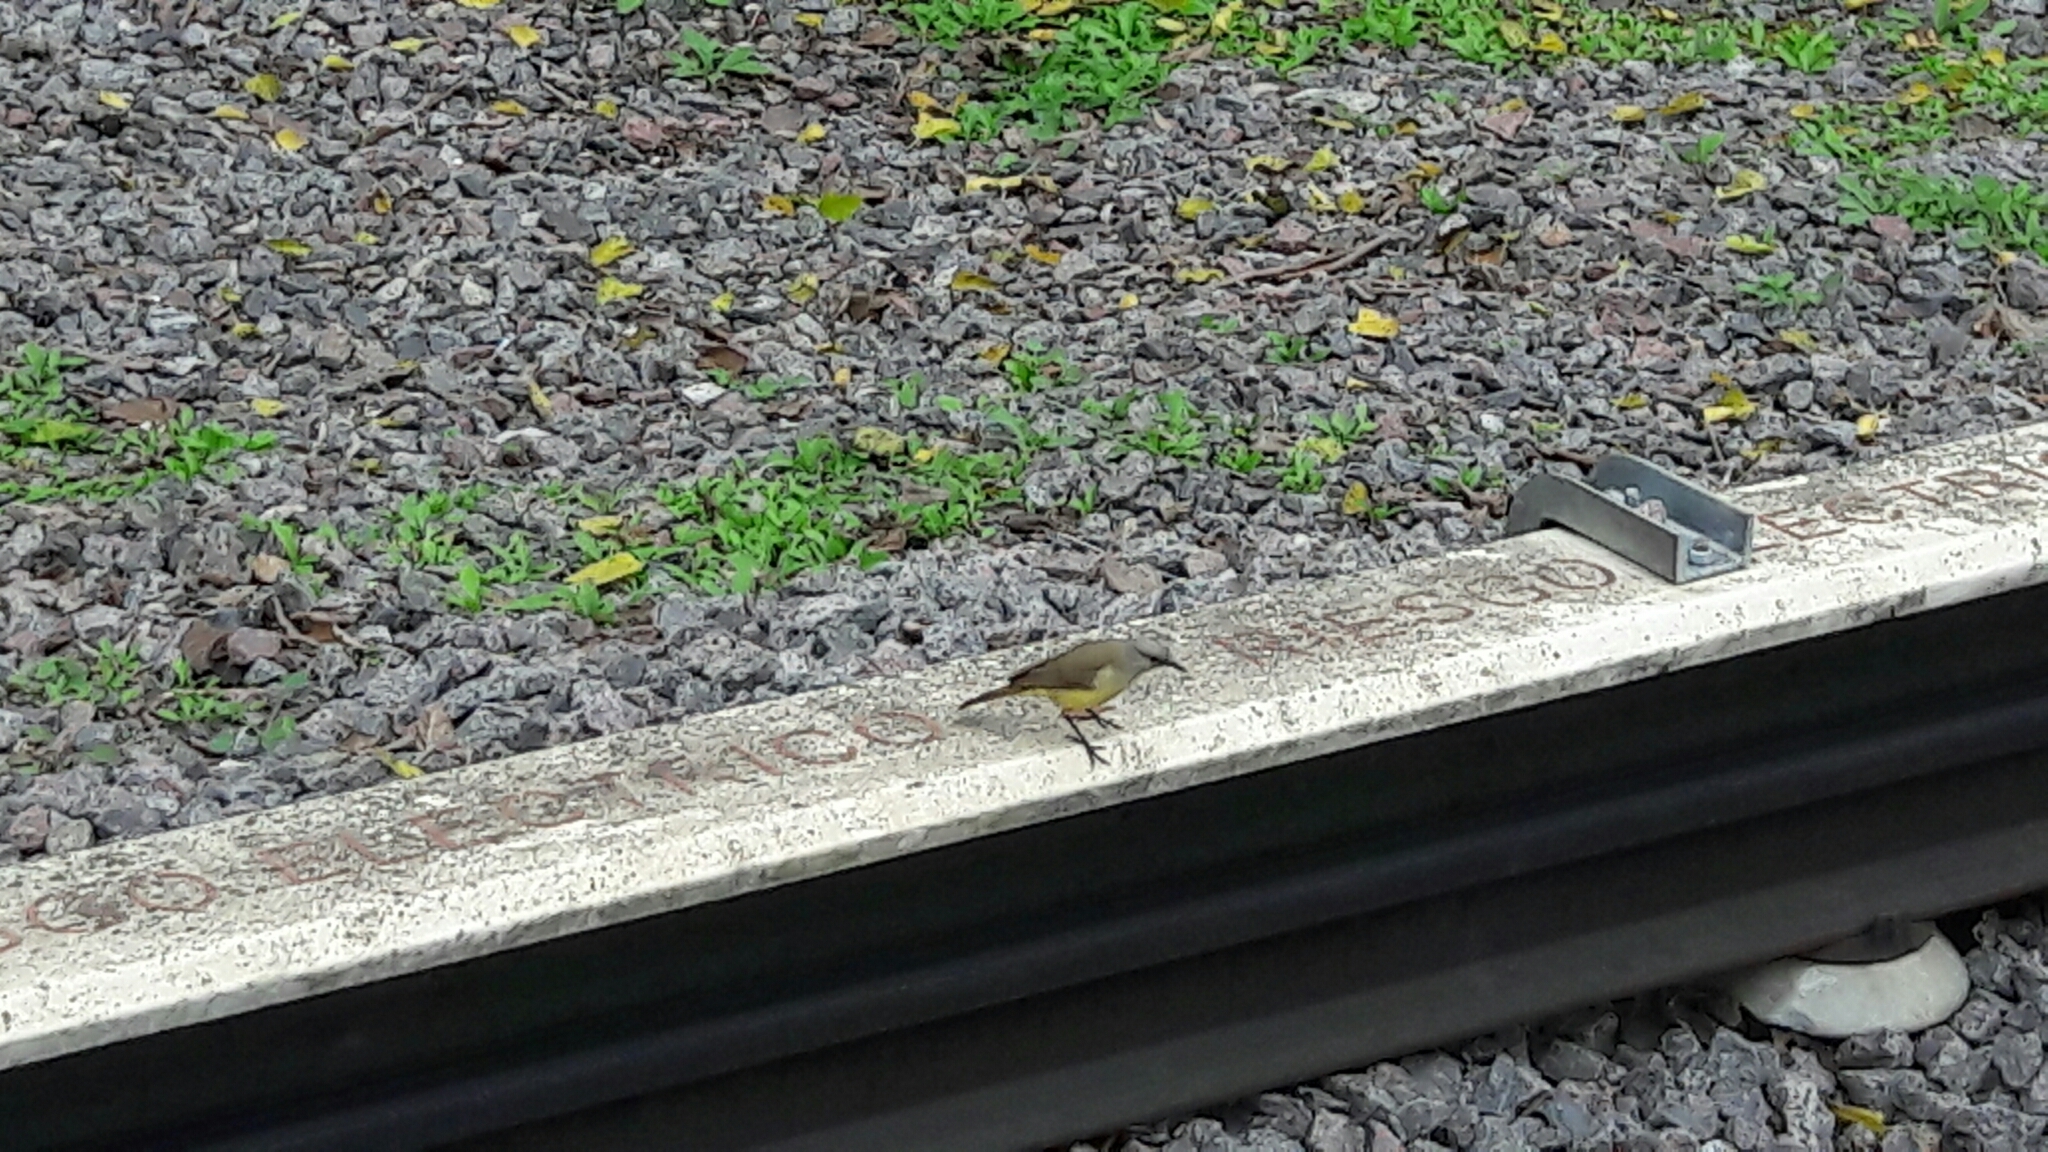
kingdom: Animalia
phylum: Chordata
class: Aves
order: Passeriformes
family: Tyrannidae
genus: Machetornis
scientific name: Machetornis rixosa
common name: Cattle tyrant
